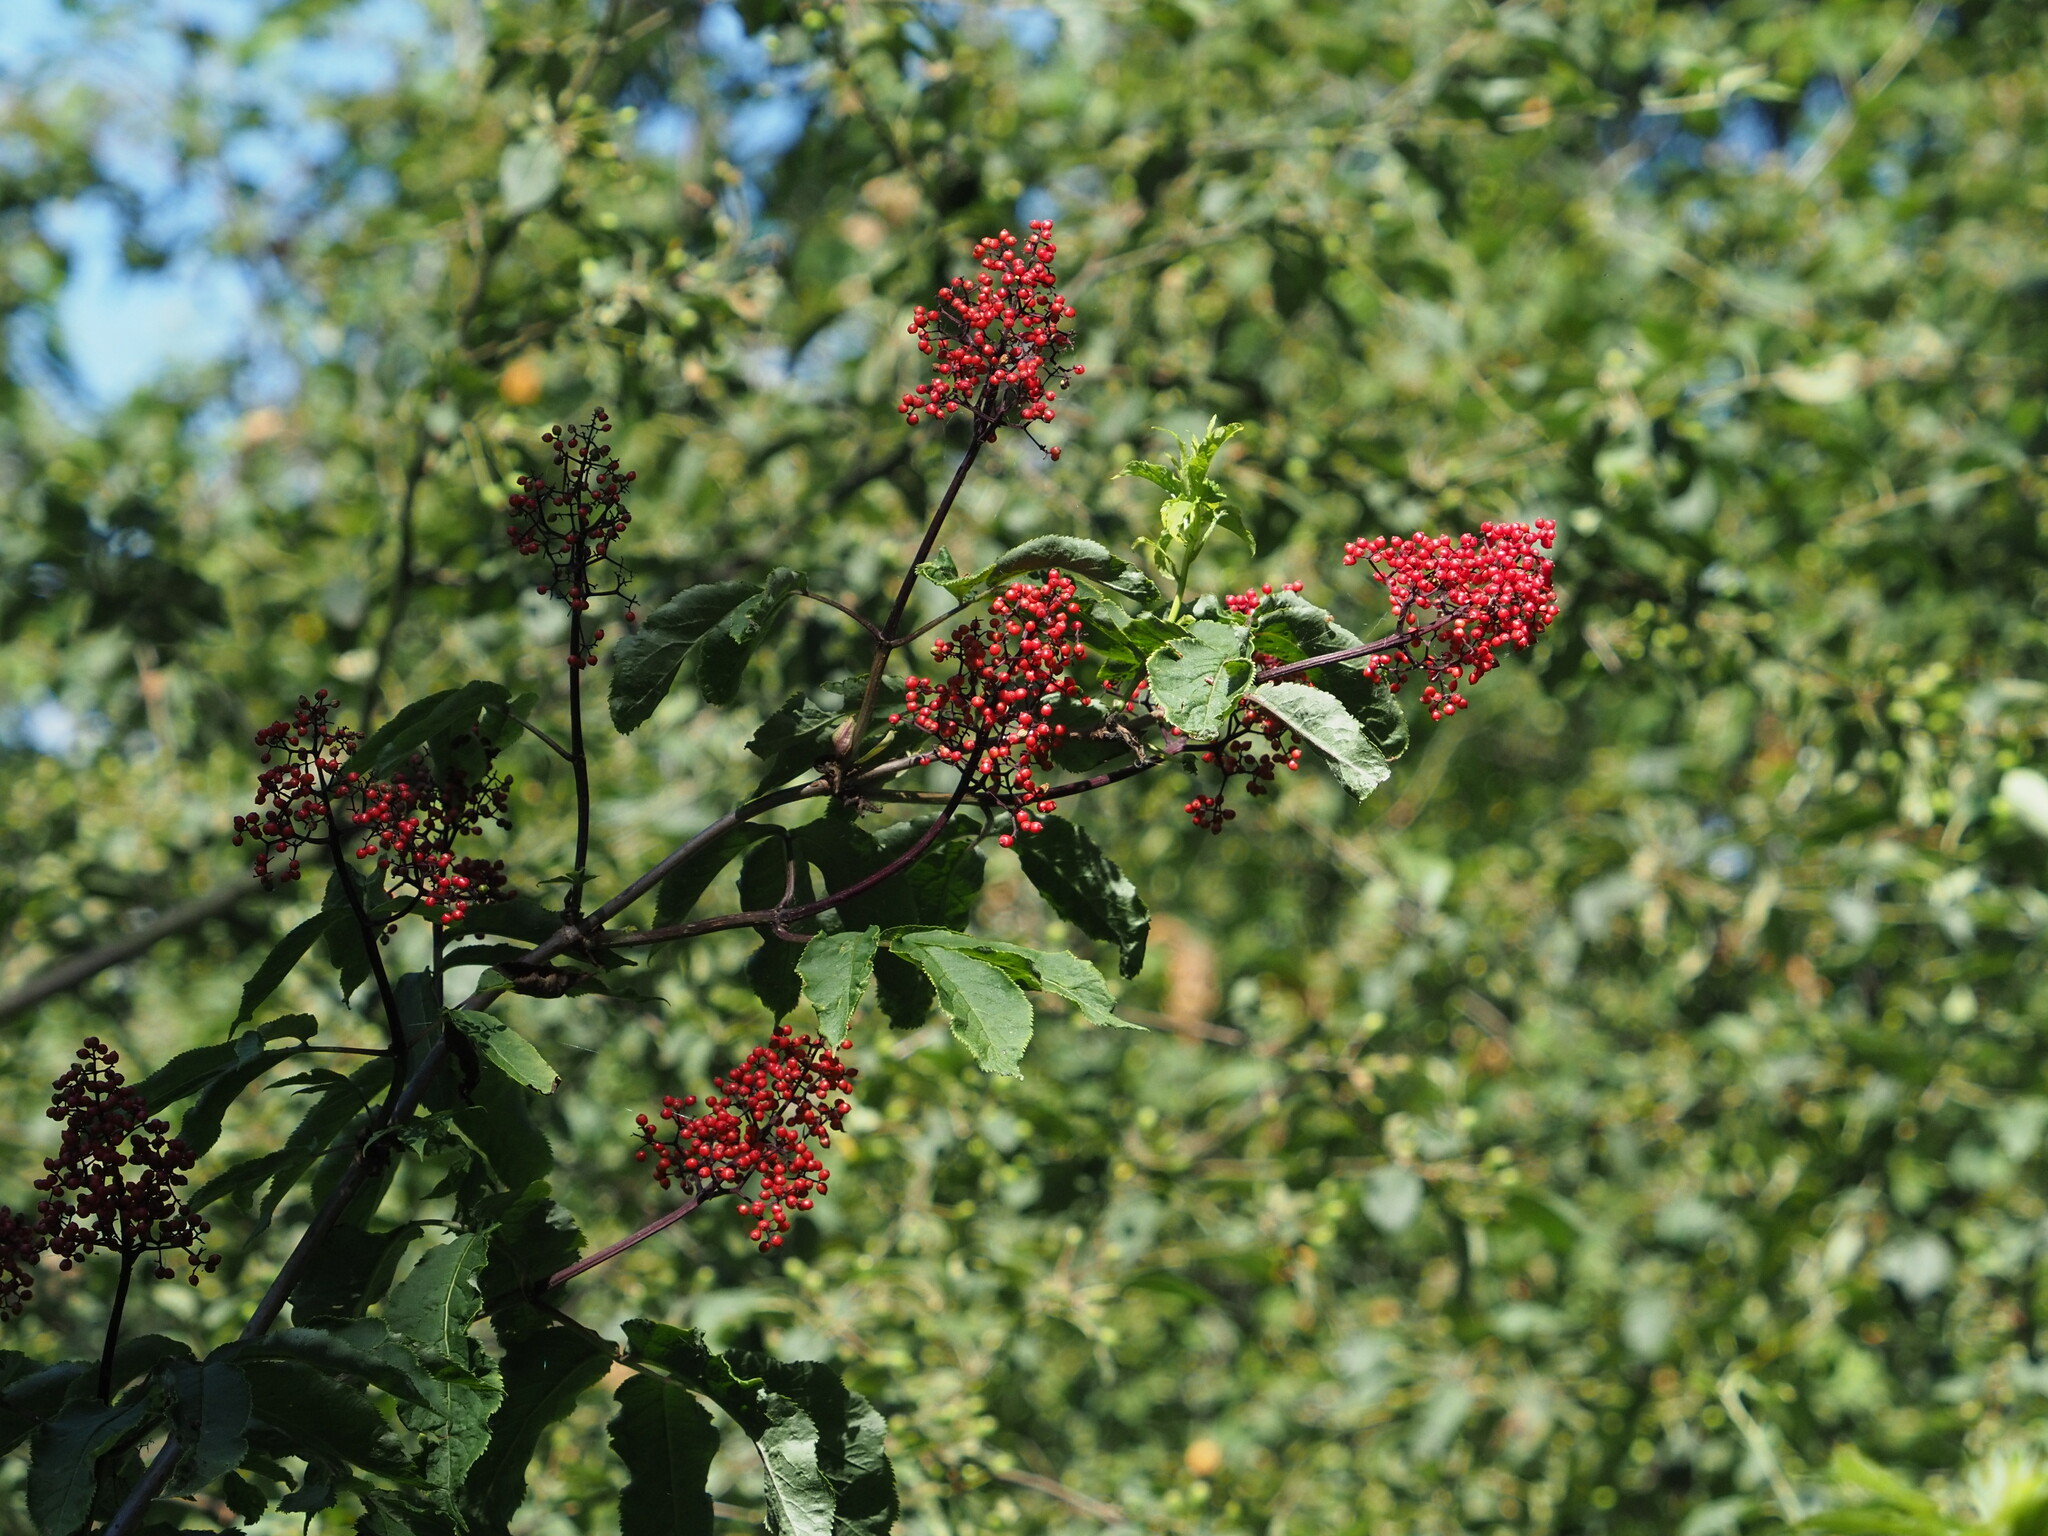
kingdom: Plantae
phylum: Tracheophyta
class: Magnoliopsida
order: Dipsacales
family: Viburnaceae
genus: Sambucus
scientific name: Sambucus racemosa
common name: Red-berried elder
